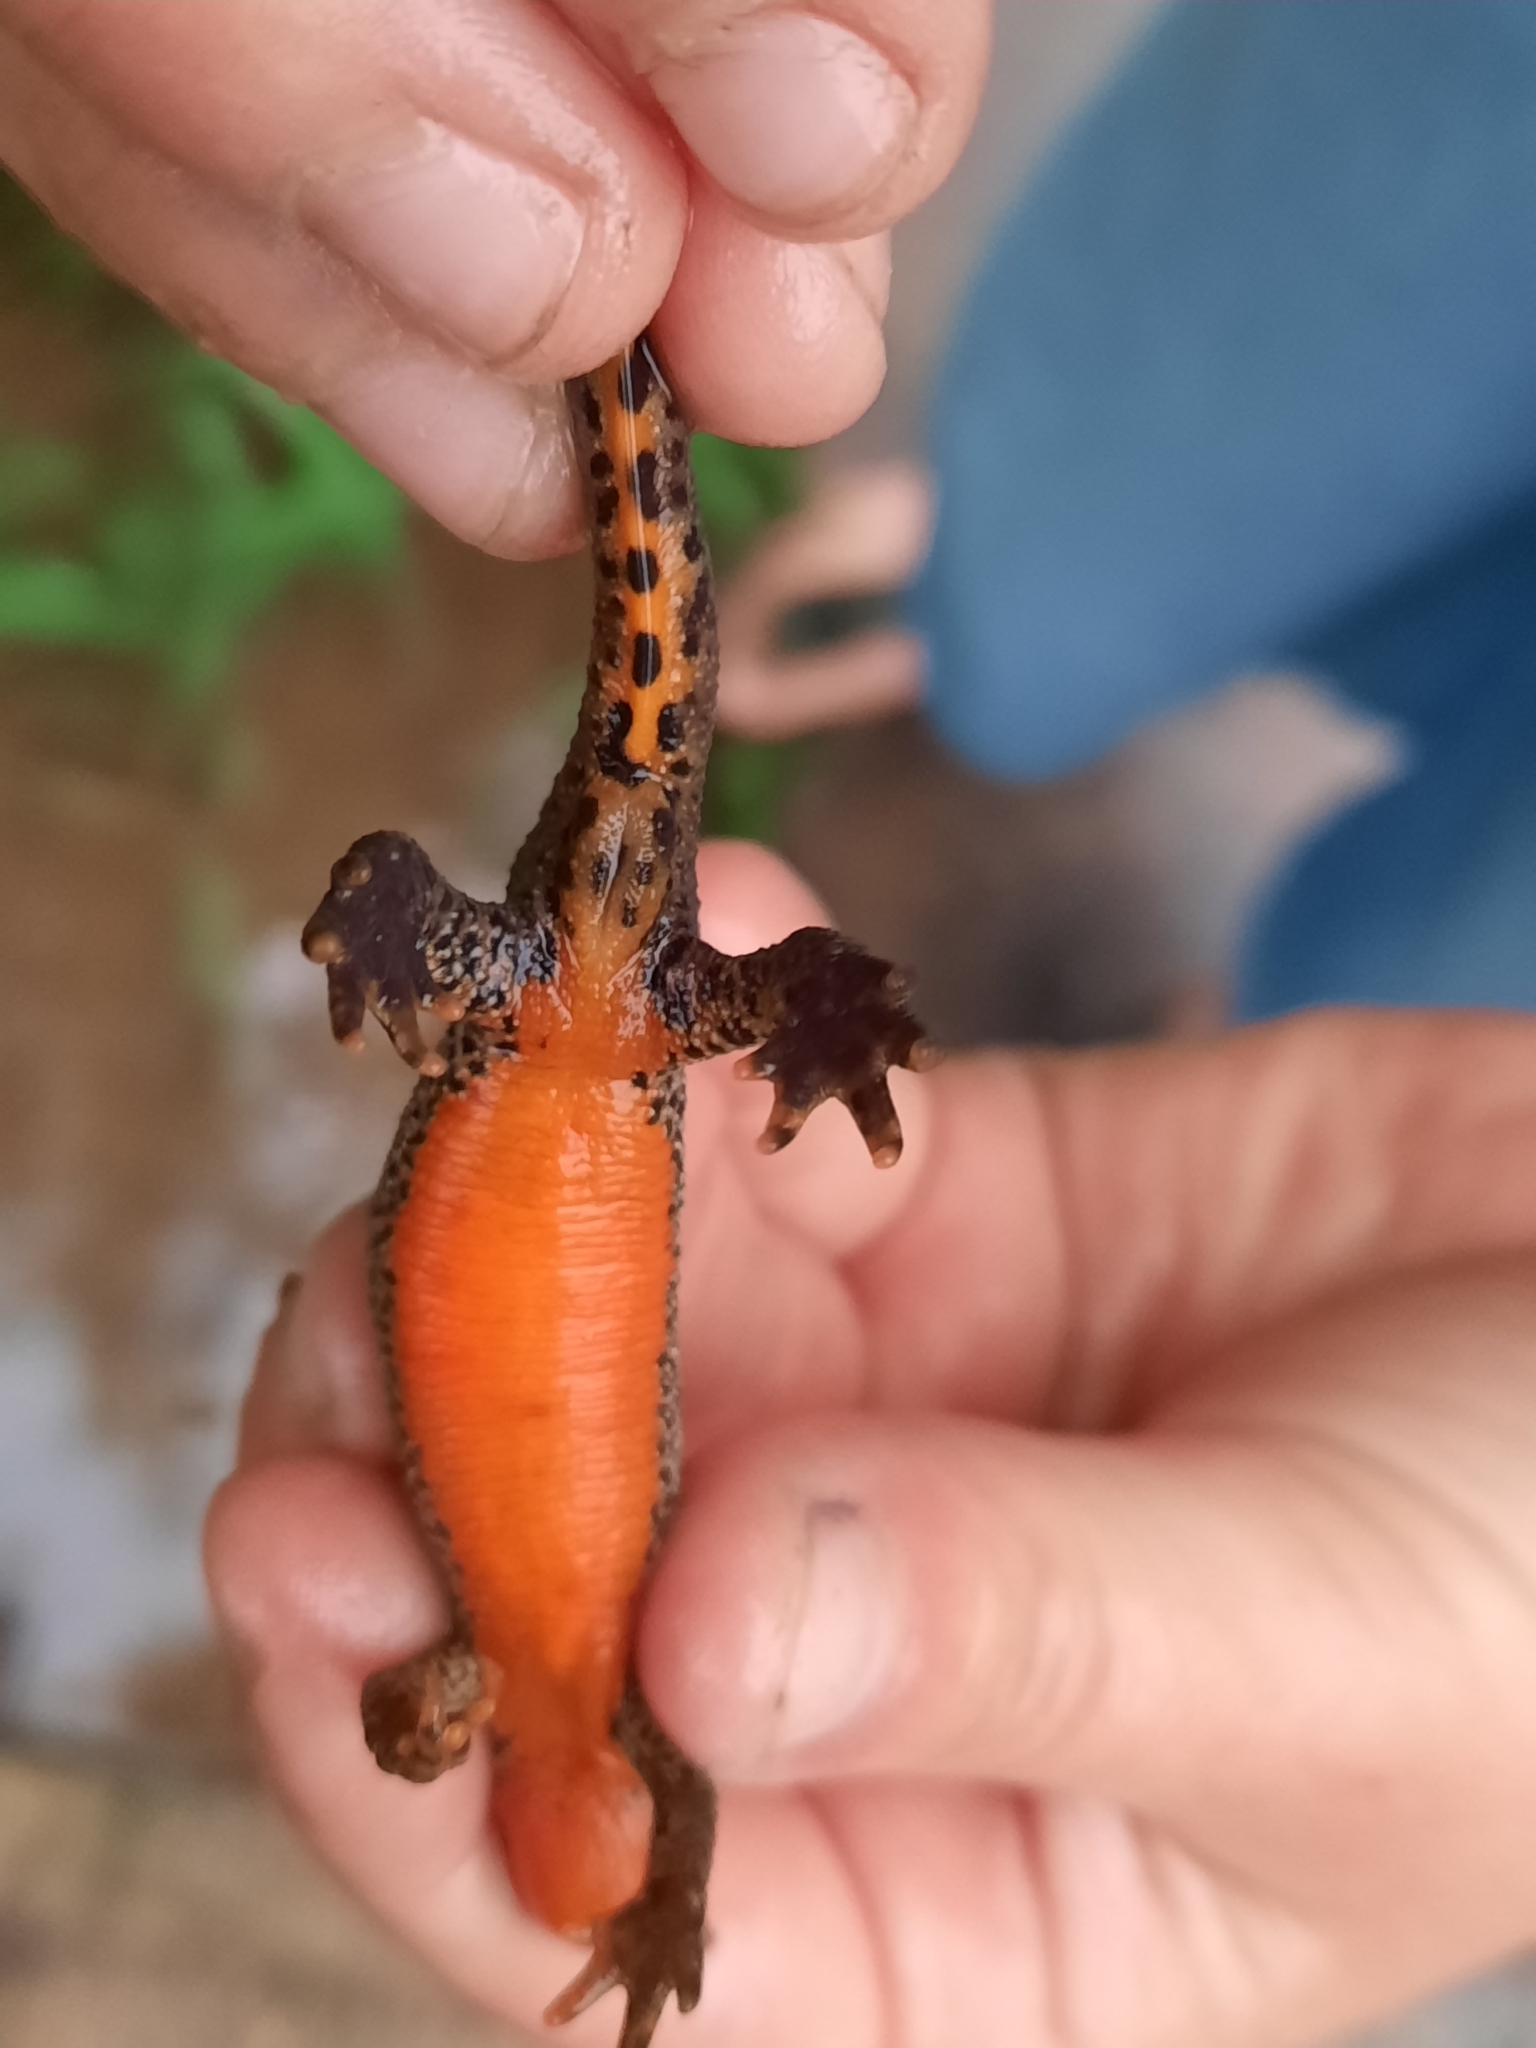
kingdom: Animalia
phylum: Chordata
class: Amphibia
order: Caudata
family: Salamandridae
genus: Ichthyosaura
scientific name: Ichthyosaura alpestris
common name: Alpine newt
